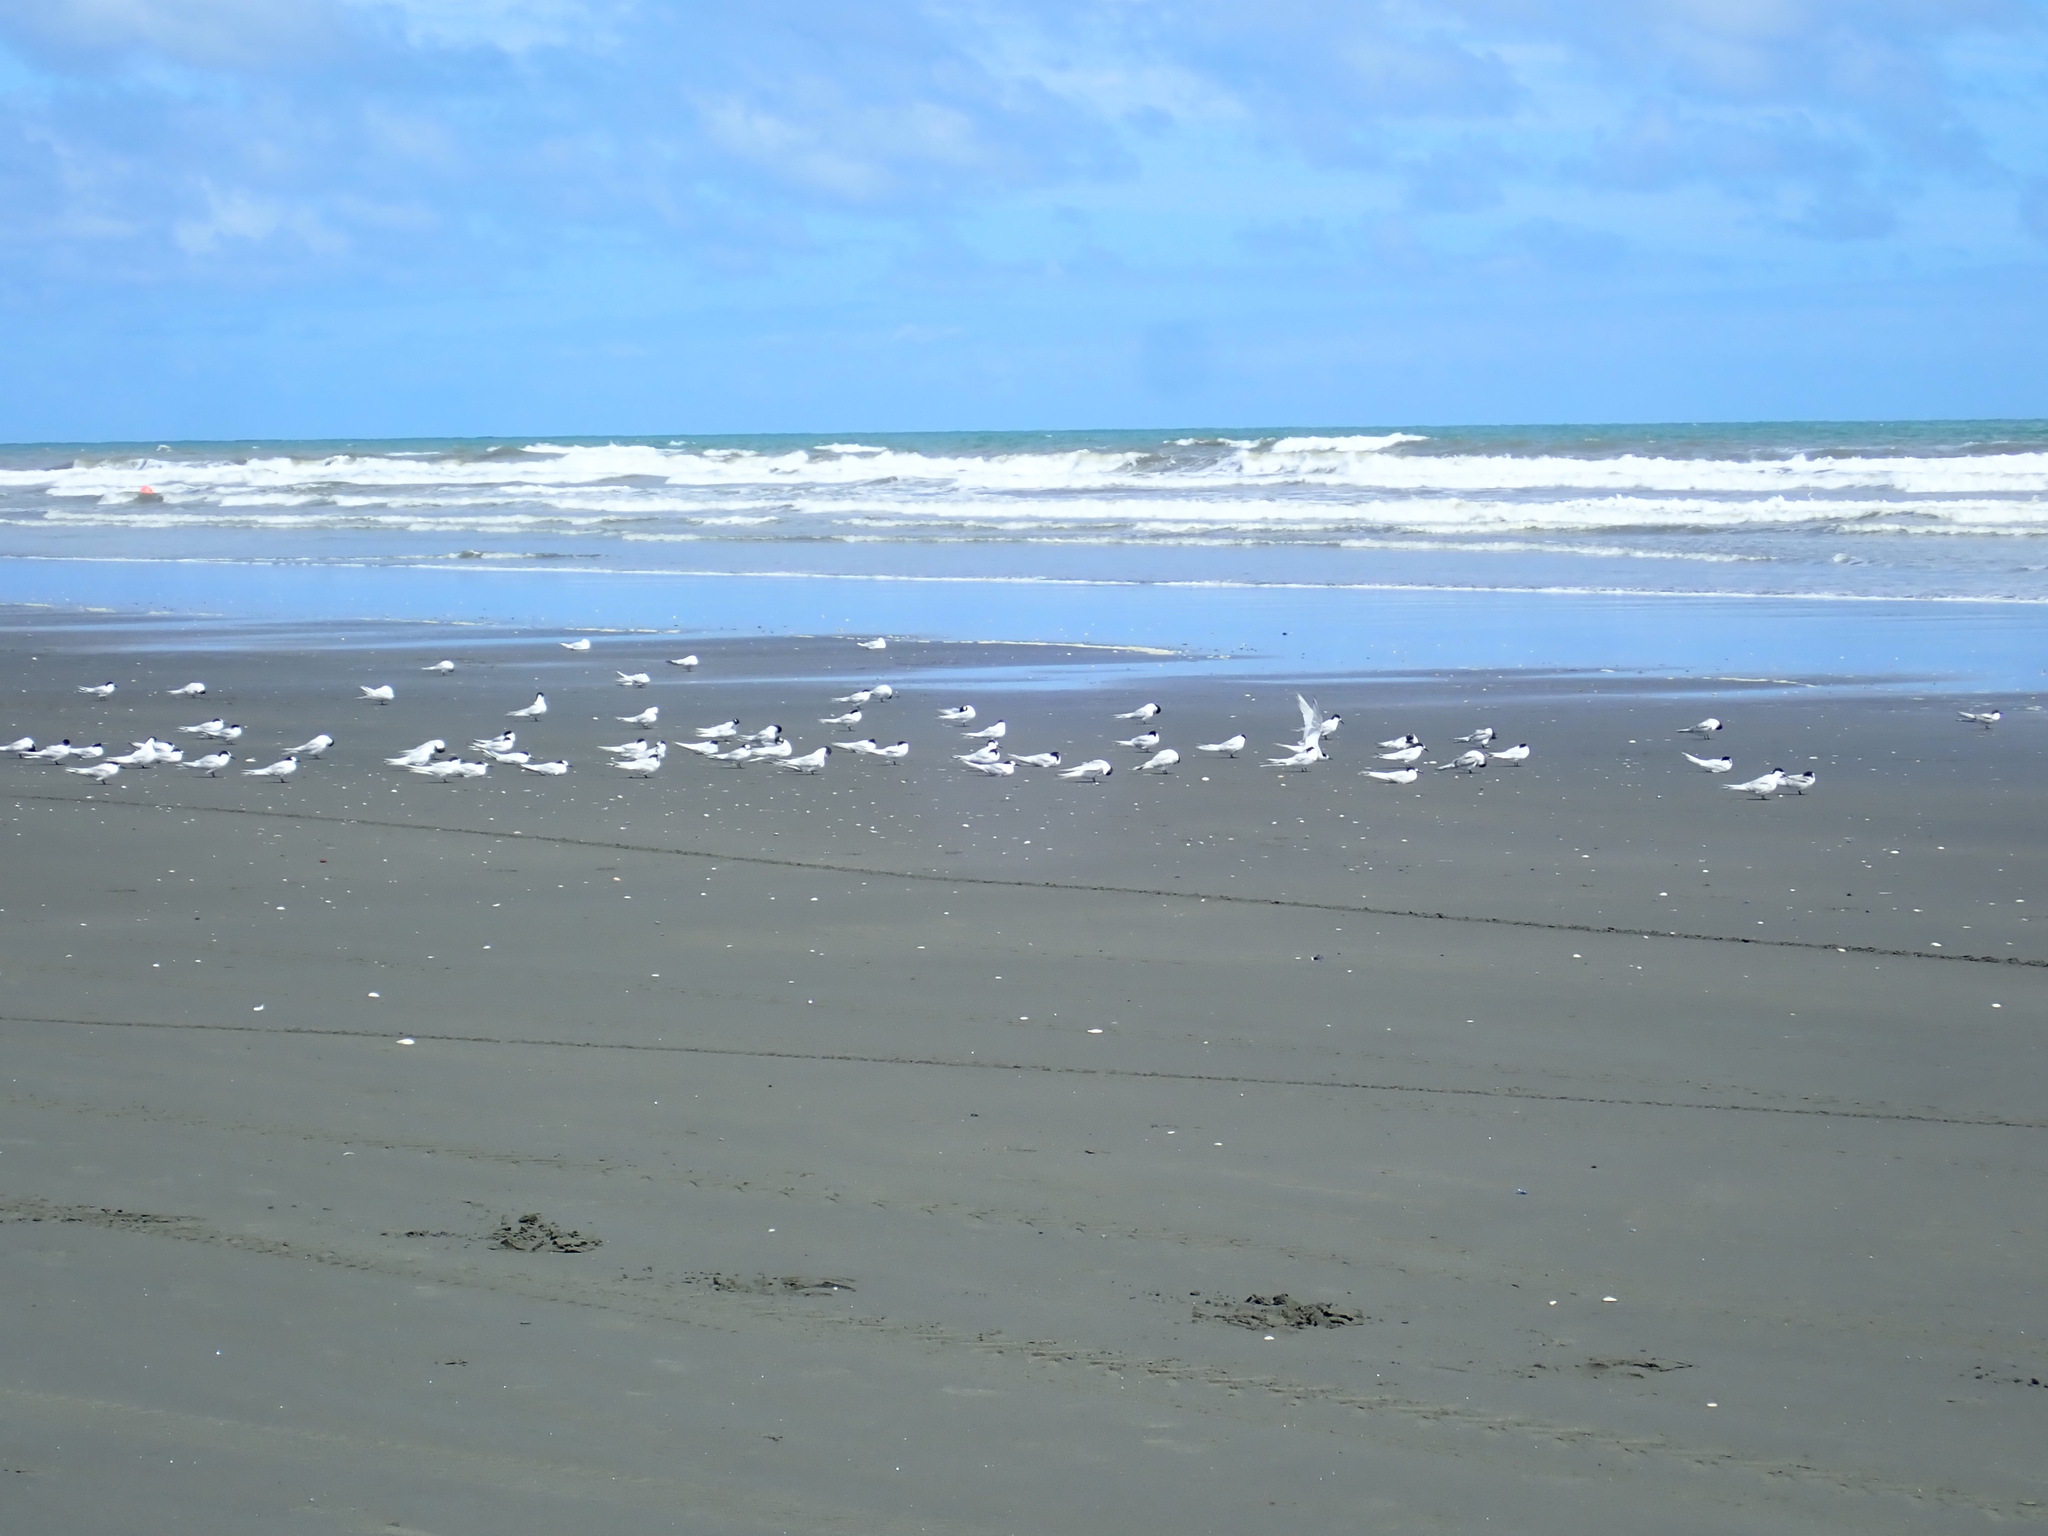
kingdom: Animalia
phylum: Chordata
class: Aves
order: Charadriiformes
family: Laridae
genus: Sterna
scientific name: Sterna striata
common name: White-fronted tern
